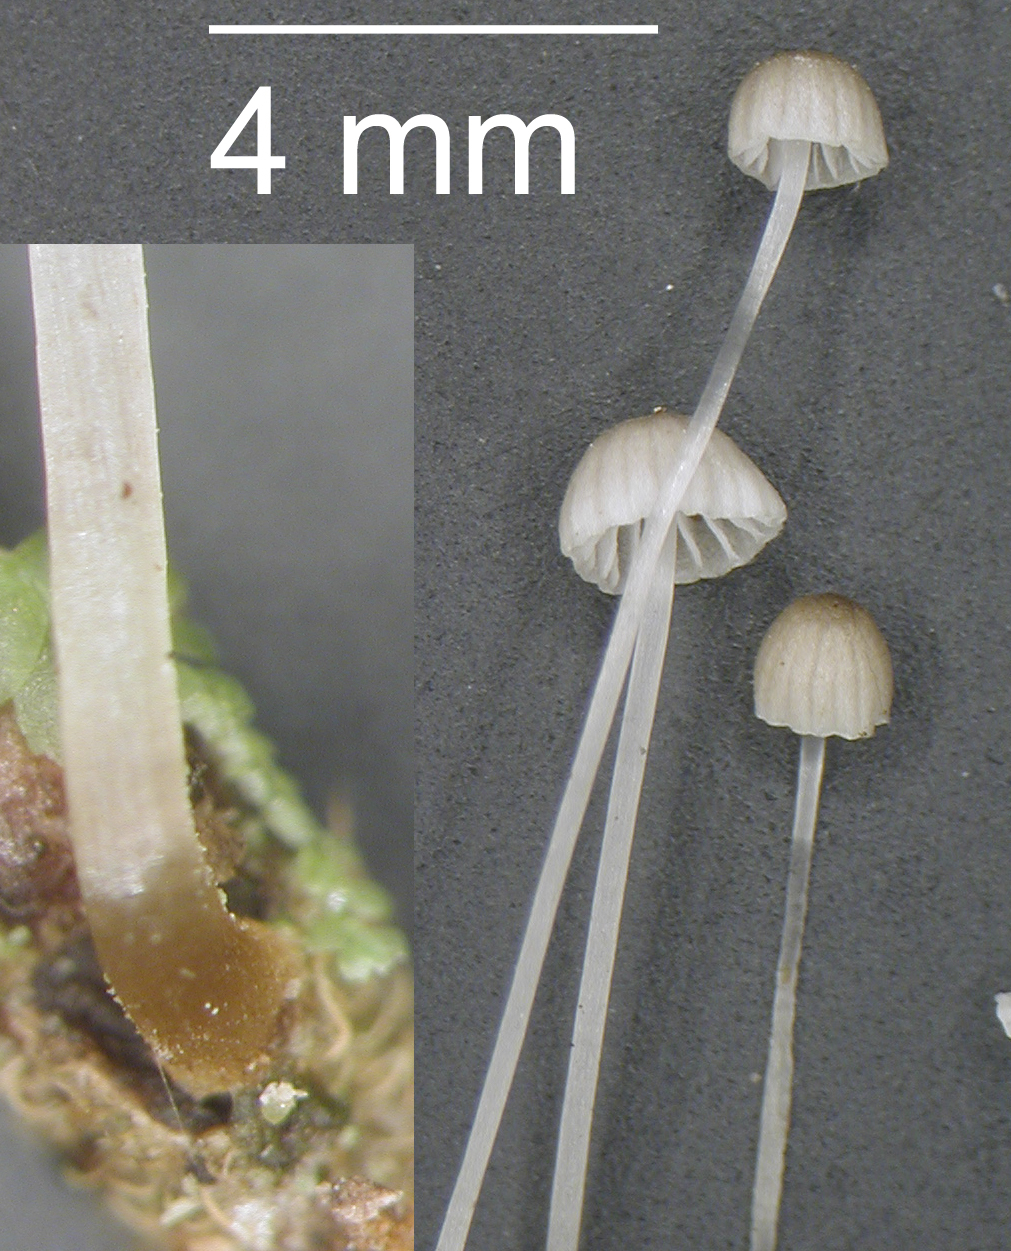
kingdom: Fungi
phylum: Basidiomycota
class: Agaricomycetes
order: Agaricales
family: Mycenaceae
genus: Mycena
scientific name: Mycena subdebilis
